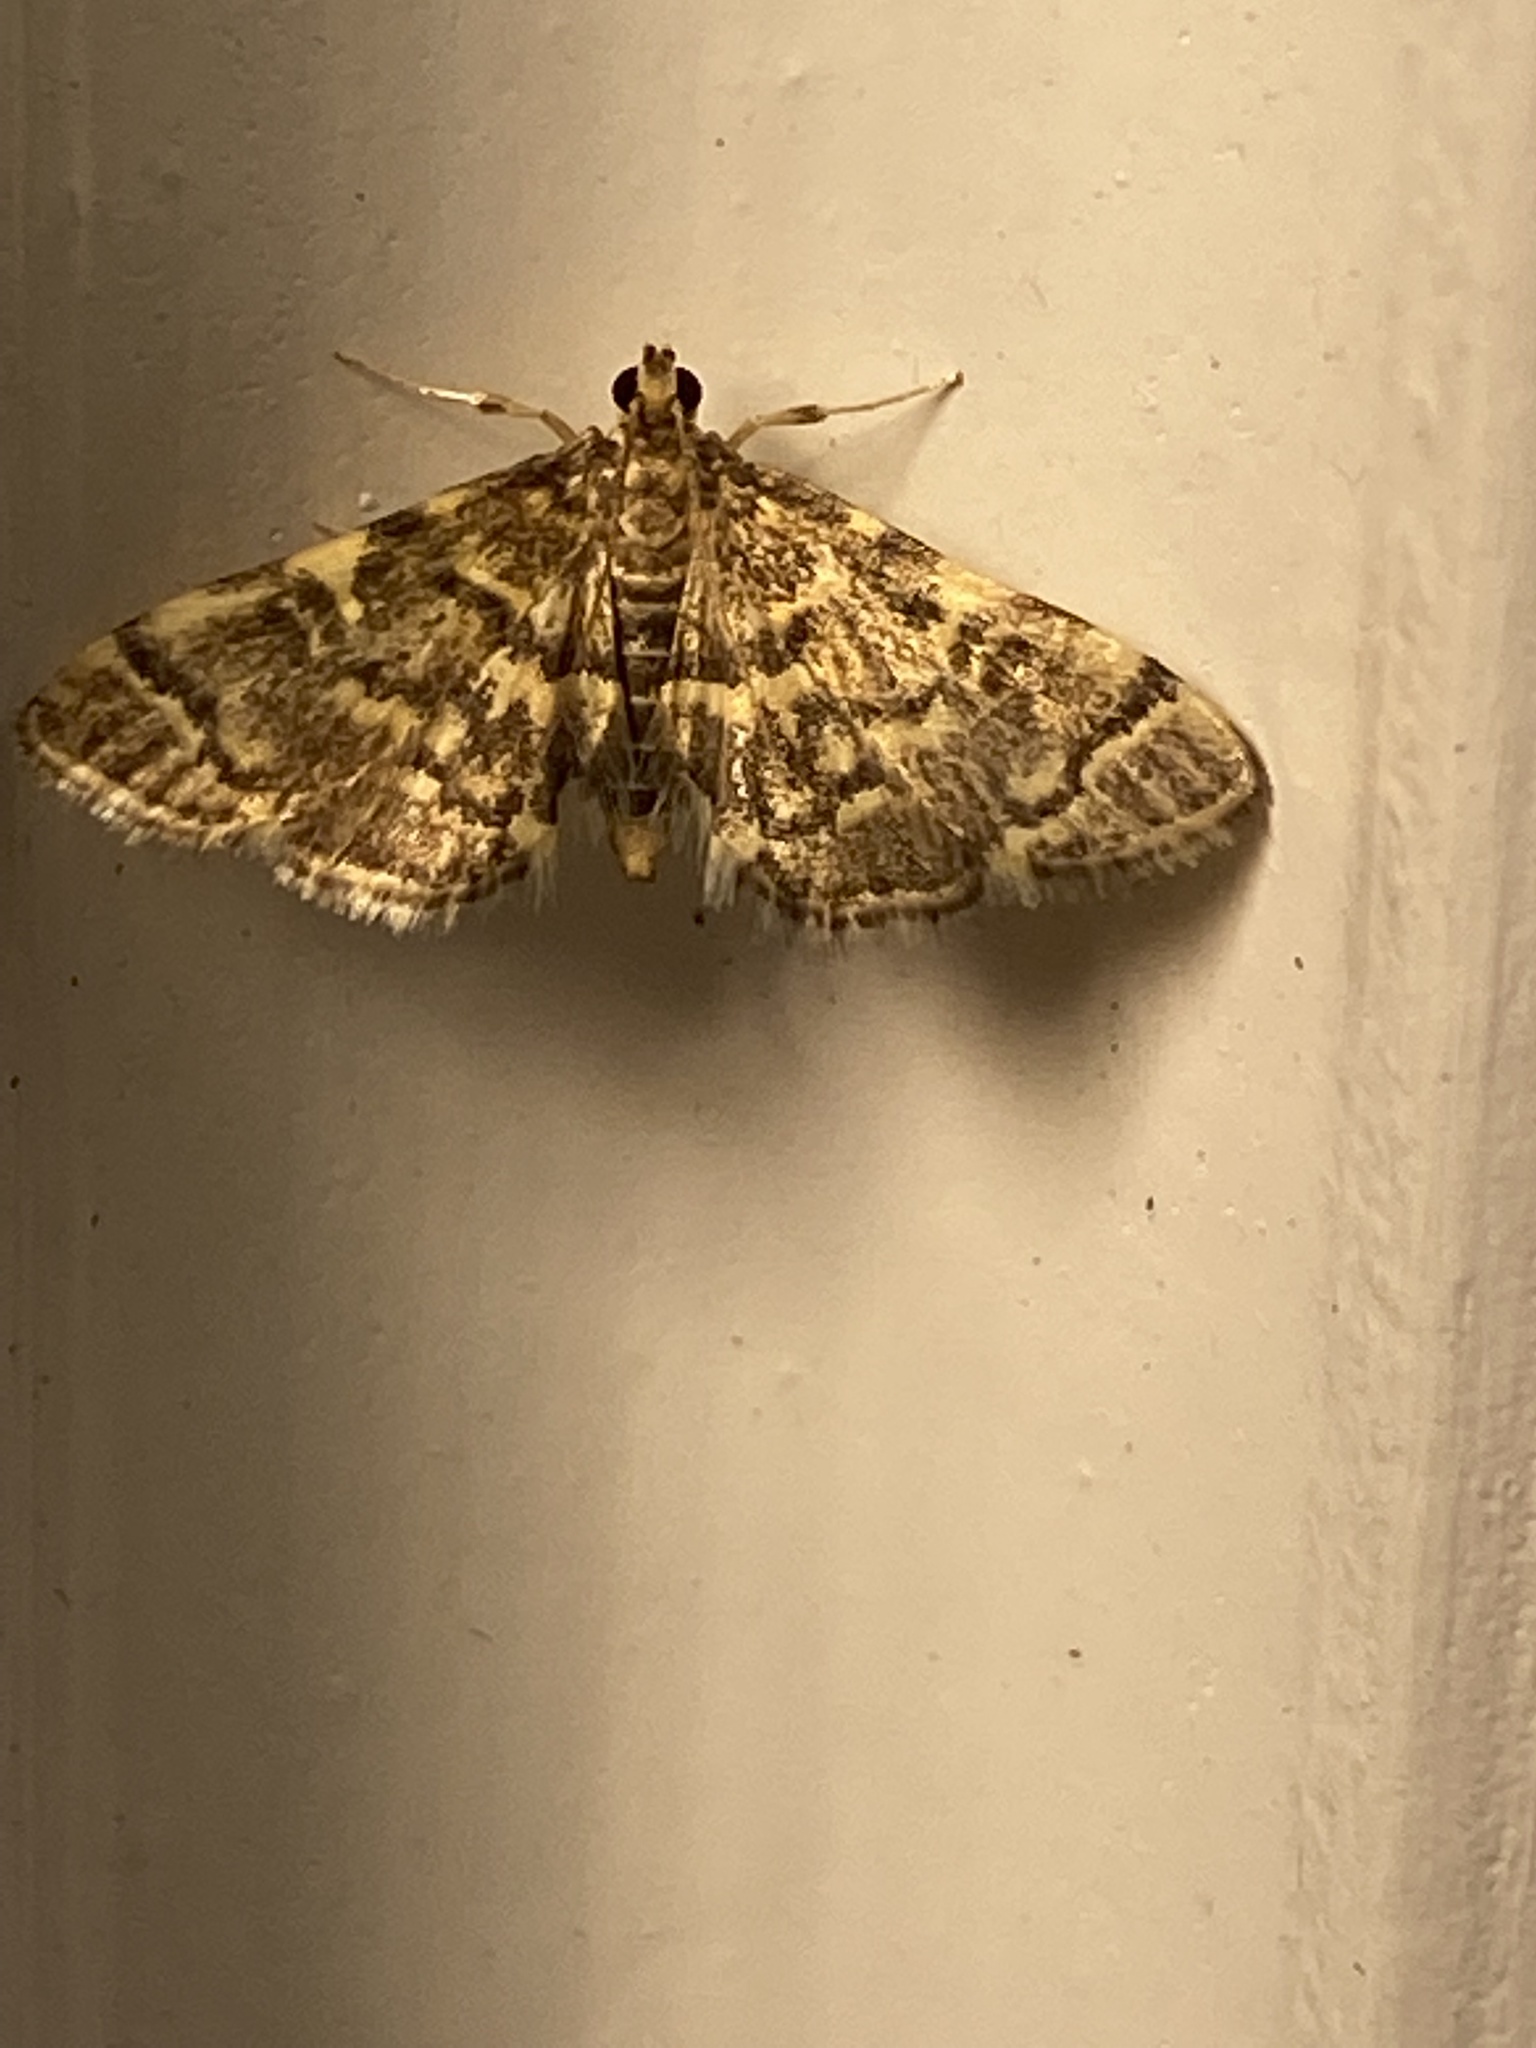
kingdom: Animalia
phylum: Arthropoda
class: Insecta
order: Lepidoptera
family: Crambidae
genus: Anageshna
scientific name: Anageshna primordialis
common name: Yellow-spotted webworm moth
